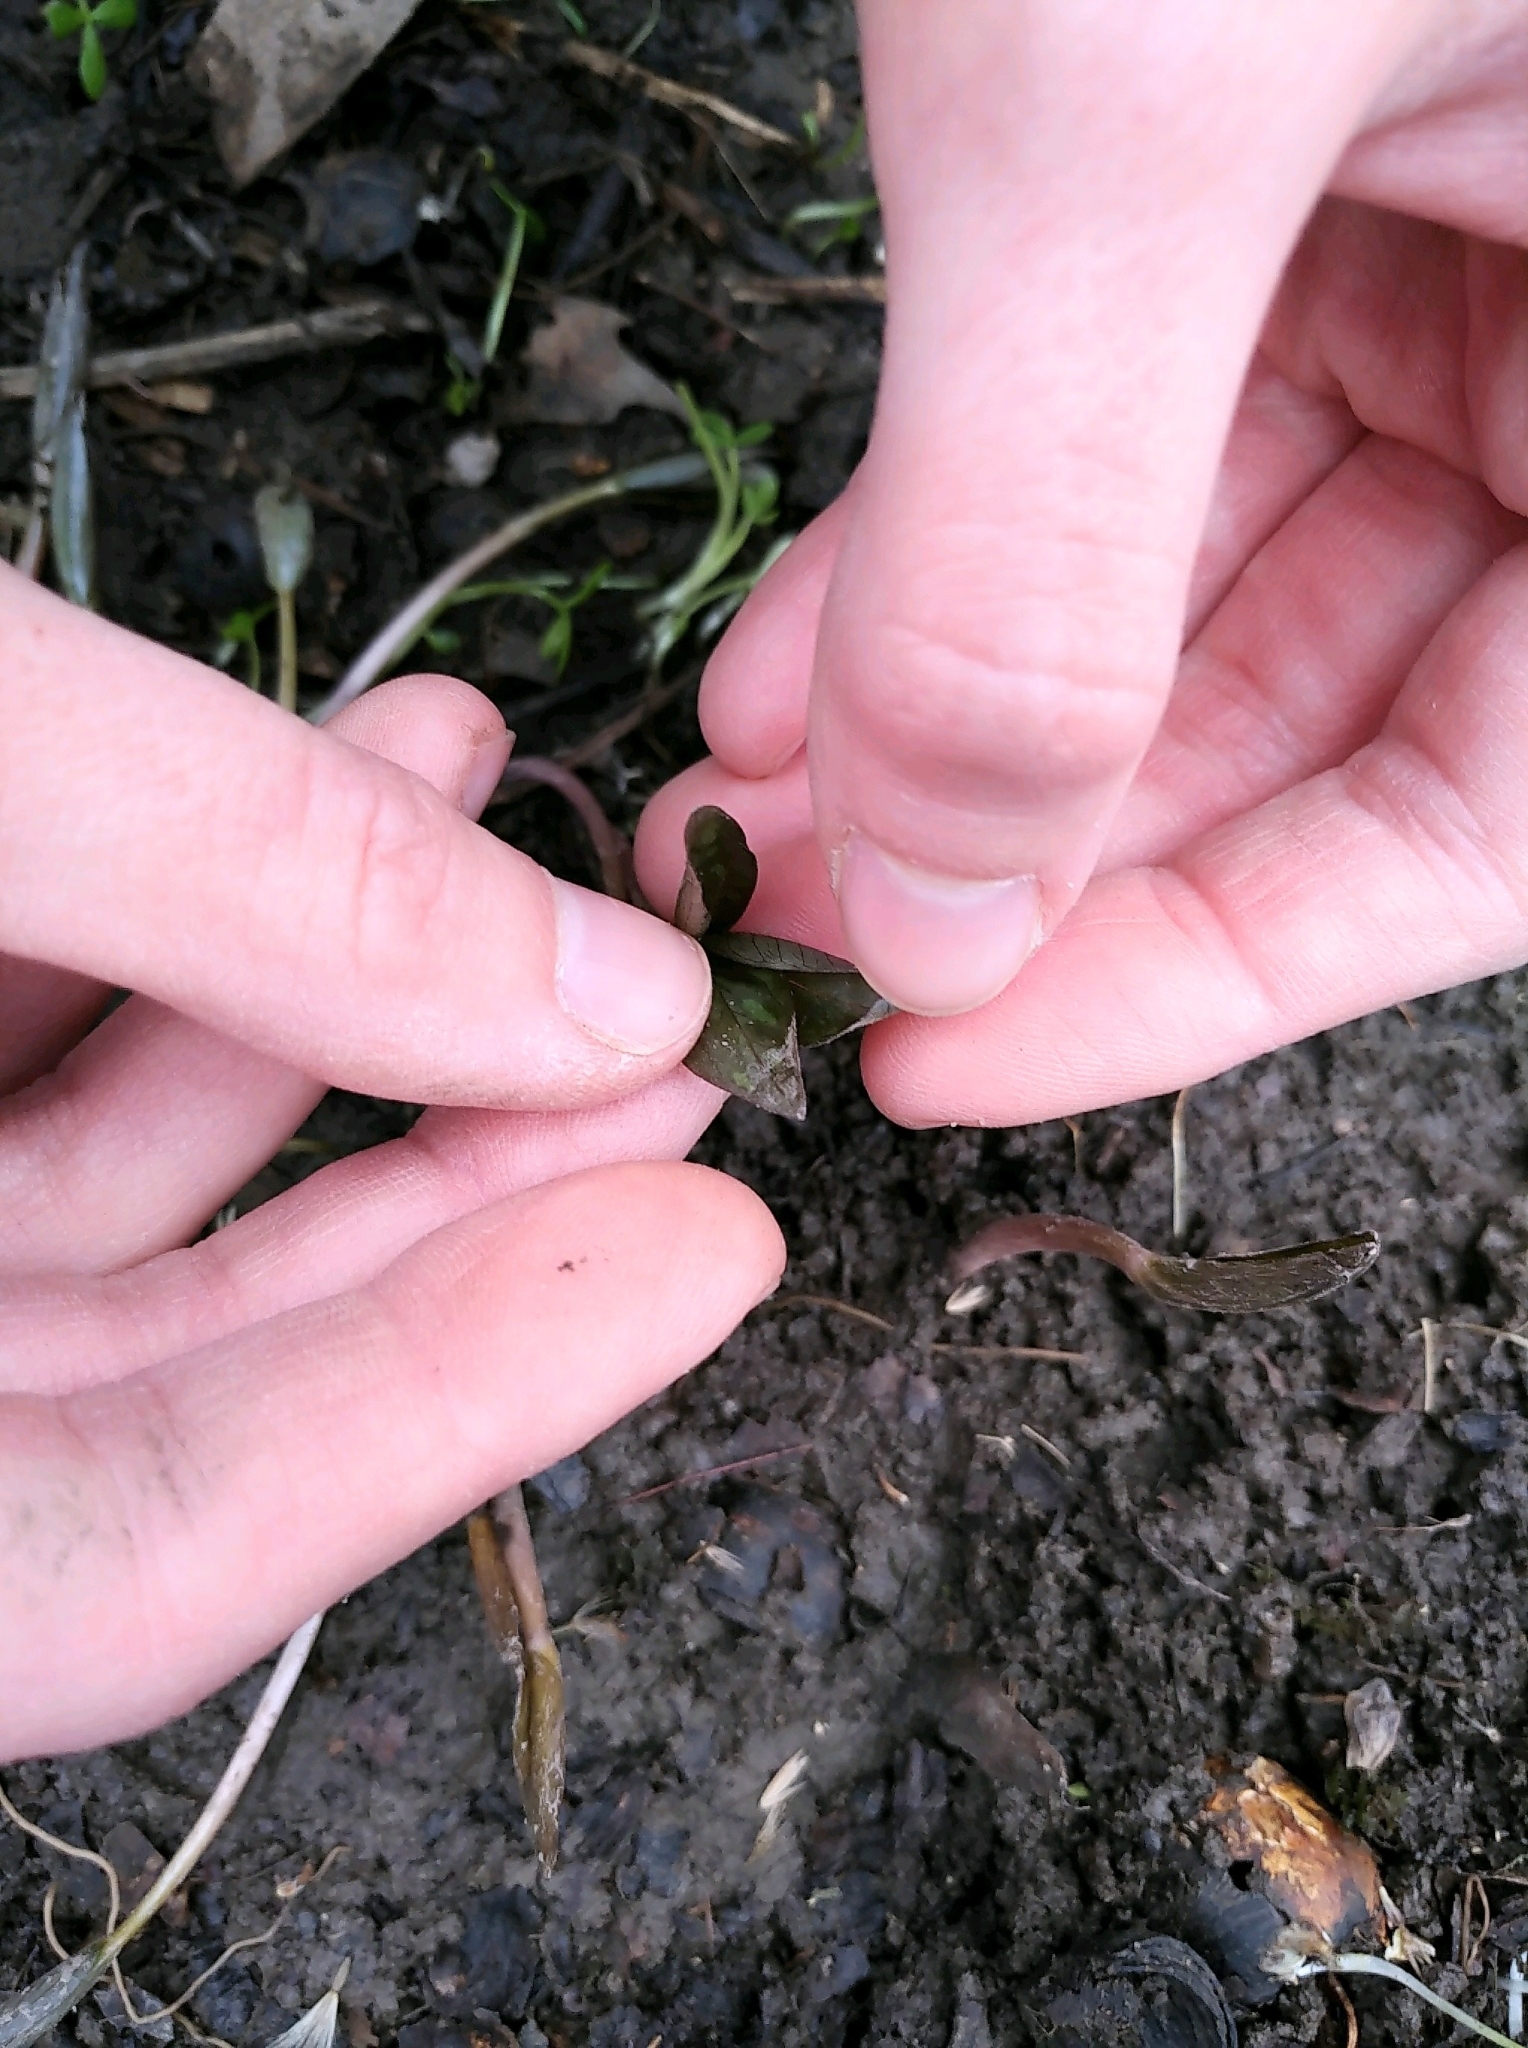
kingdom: Plantae
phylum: Tracheophyta
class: Liliopsida
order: Liliales
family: Melanthiaceae
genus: Trillium
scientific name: Trillium recurvatum
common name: Bloody butcher
